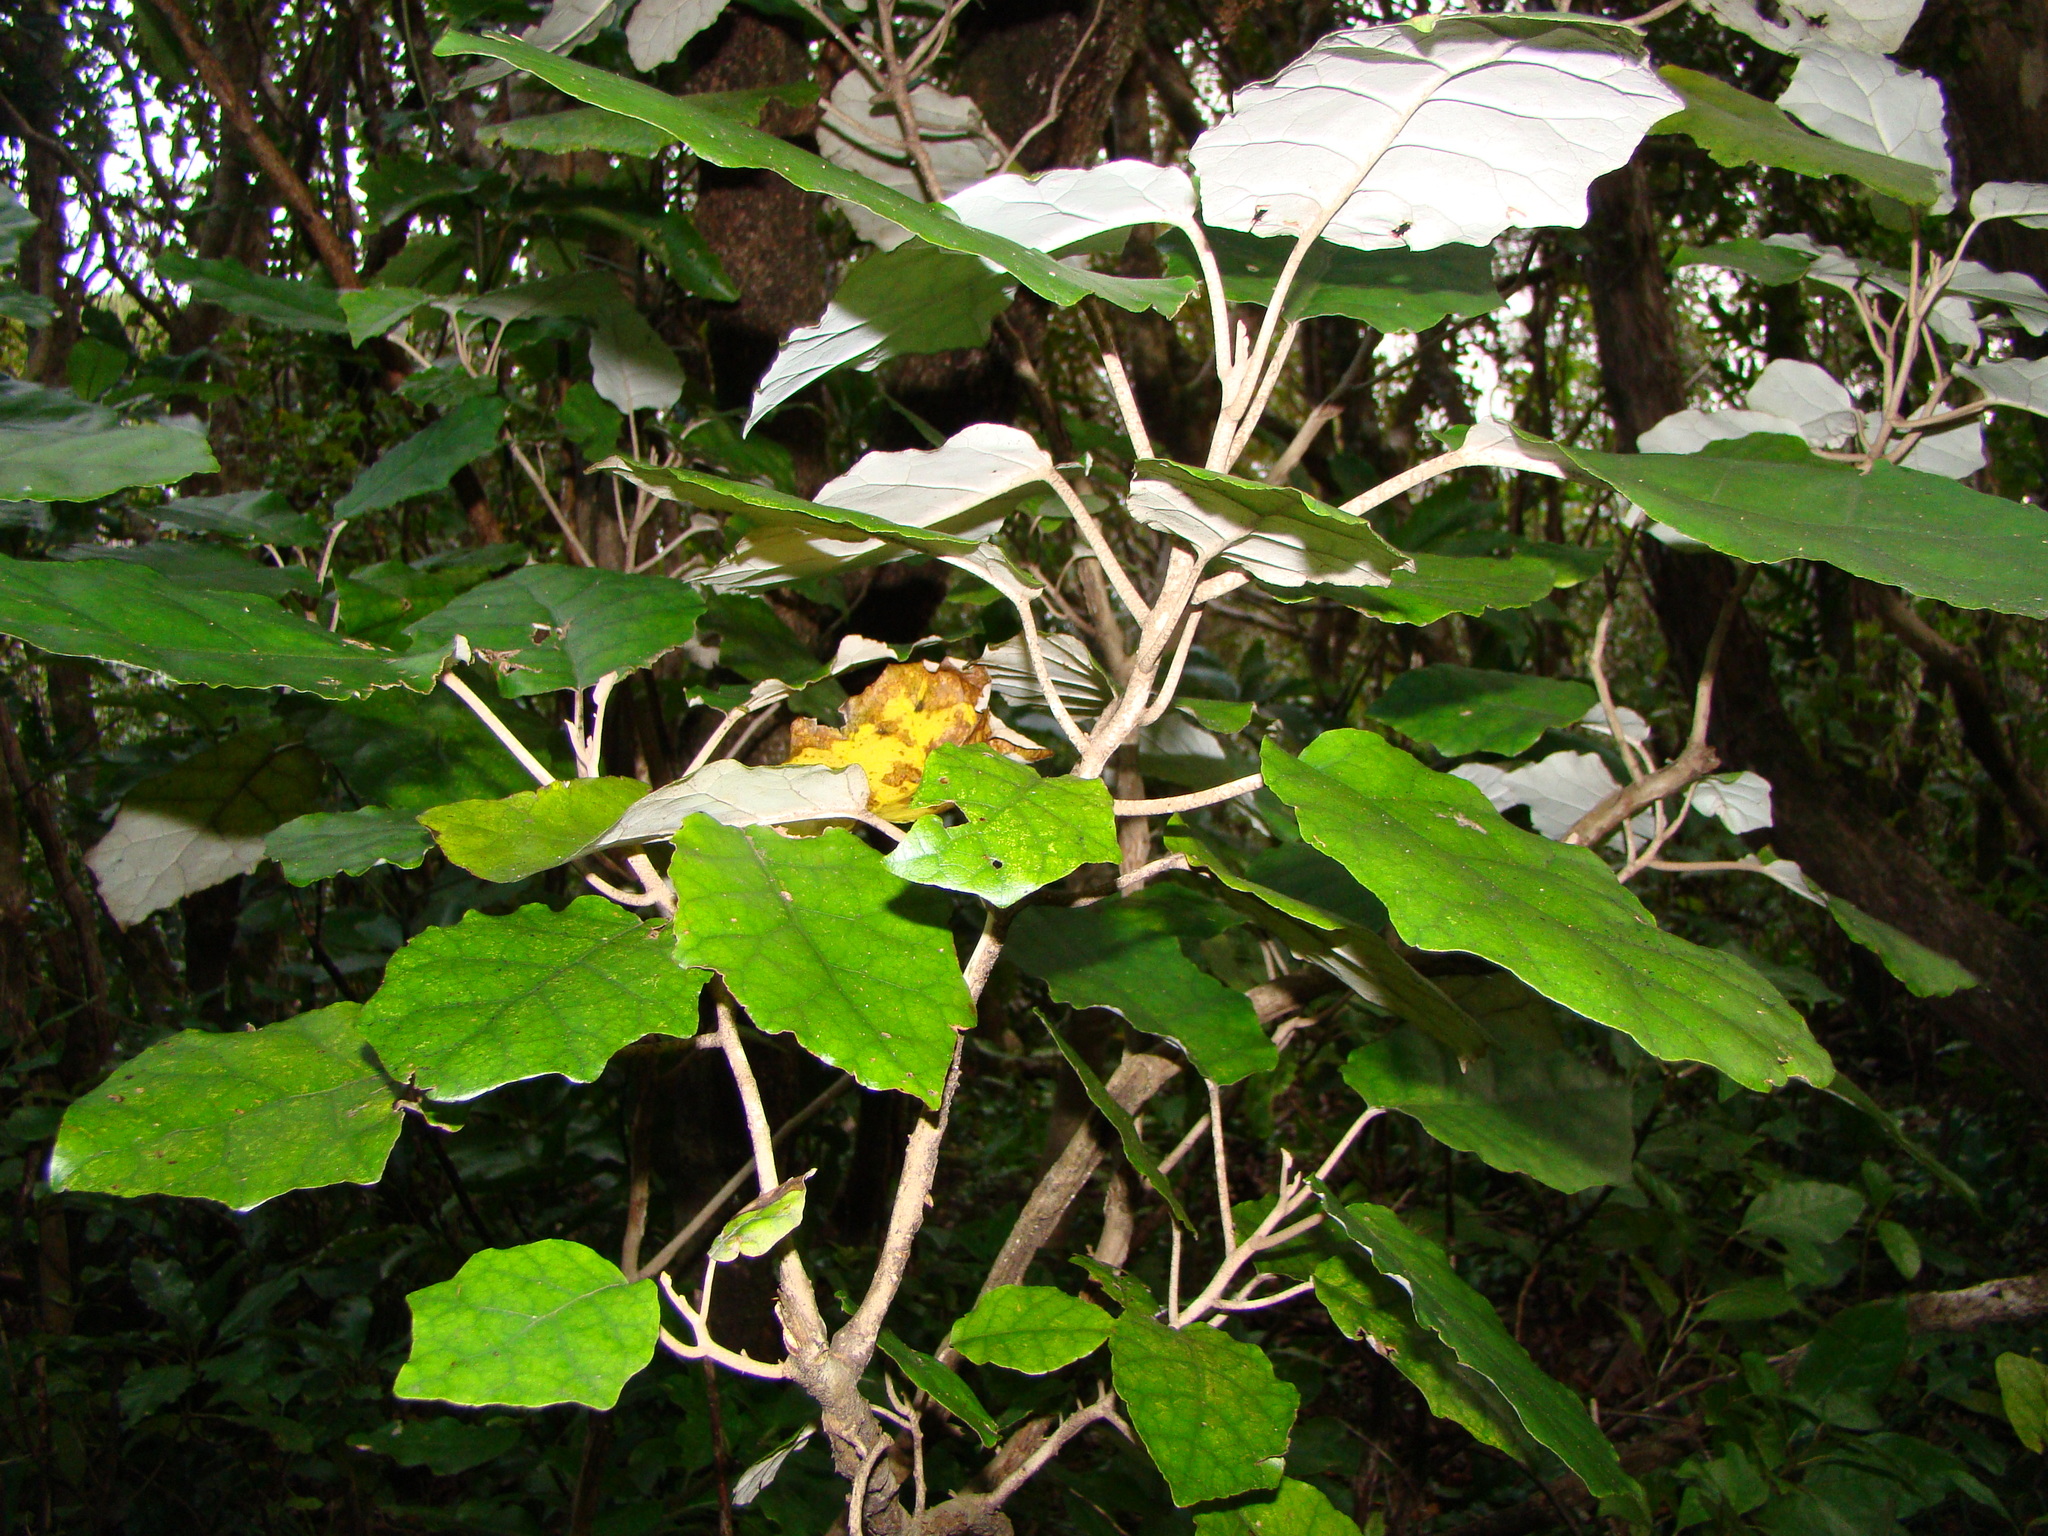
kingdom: Plantae
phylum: Tracheophyta
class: Magnoliopsida
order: Asterales
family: Asteraceae
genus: Brachyglottis
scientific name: Brachyglottis repanda
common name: Hedge ragwort
